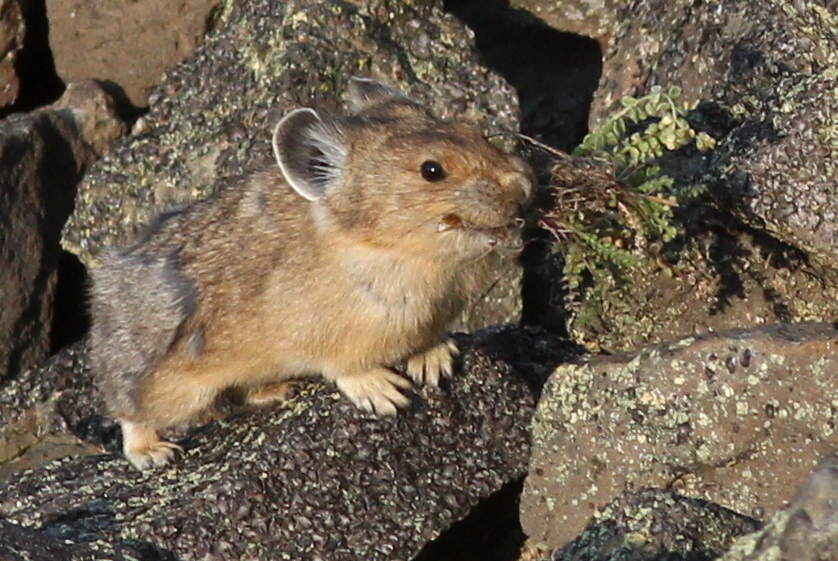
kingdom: Animalia
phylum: Chordata
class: Mammalia
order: Lagomorpha
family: Ochotonidae
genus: Ochotona
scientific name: Ochotona princeps
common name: American pika
